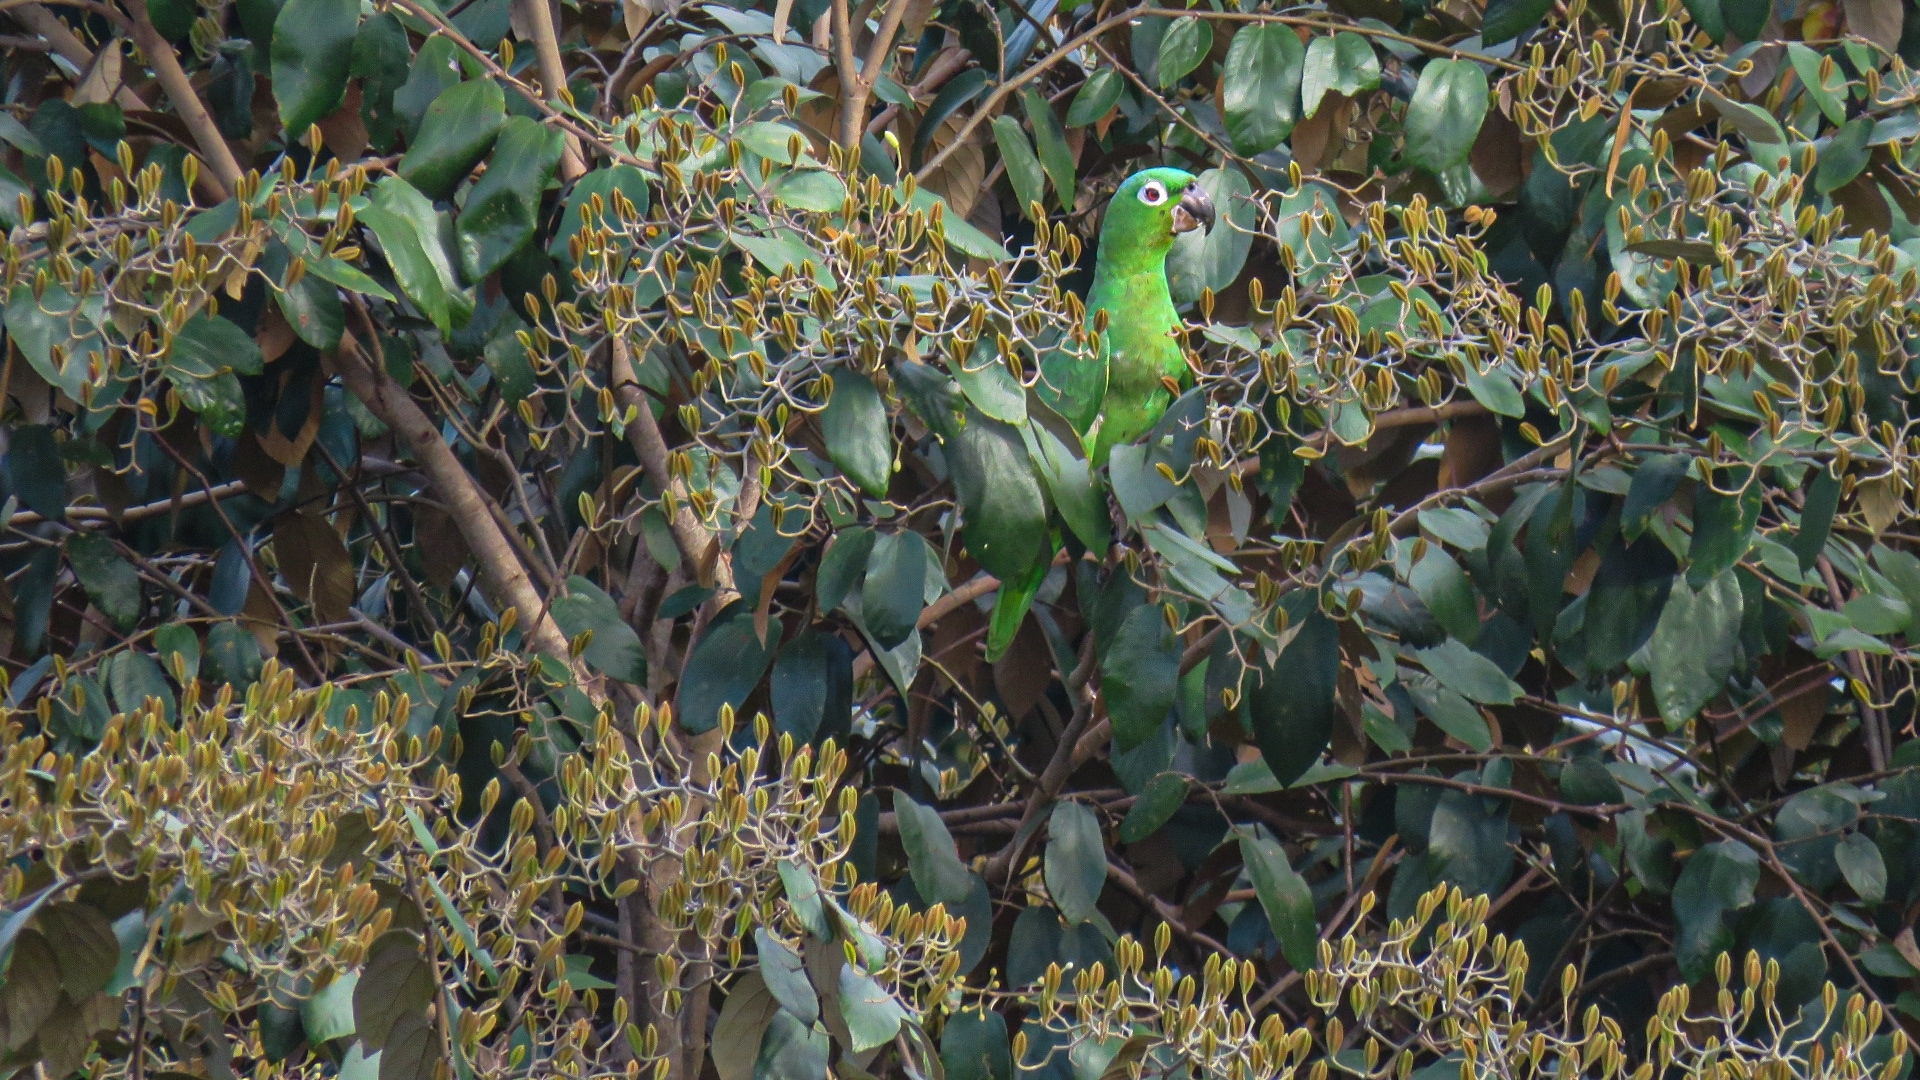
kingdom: Animalia
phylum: Chordata
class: Aves
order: Psittaciformes
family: Psittacidae
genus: Amazona
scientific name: Amazona farinosa
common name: Mealy parrot
